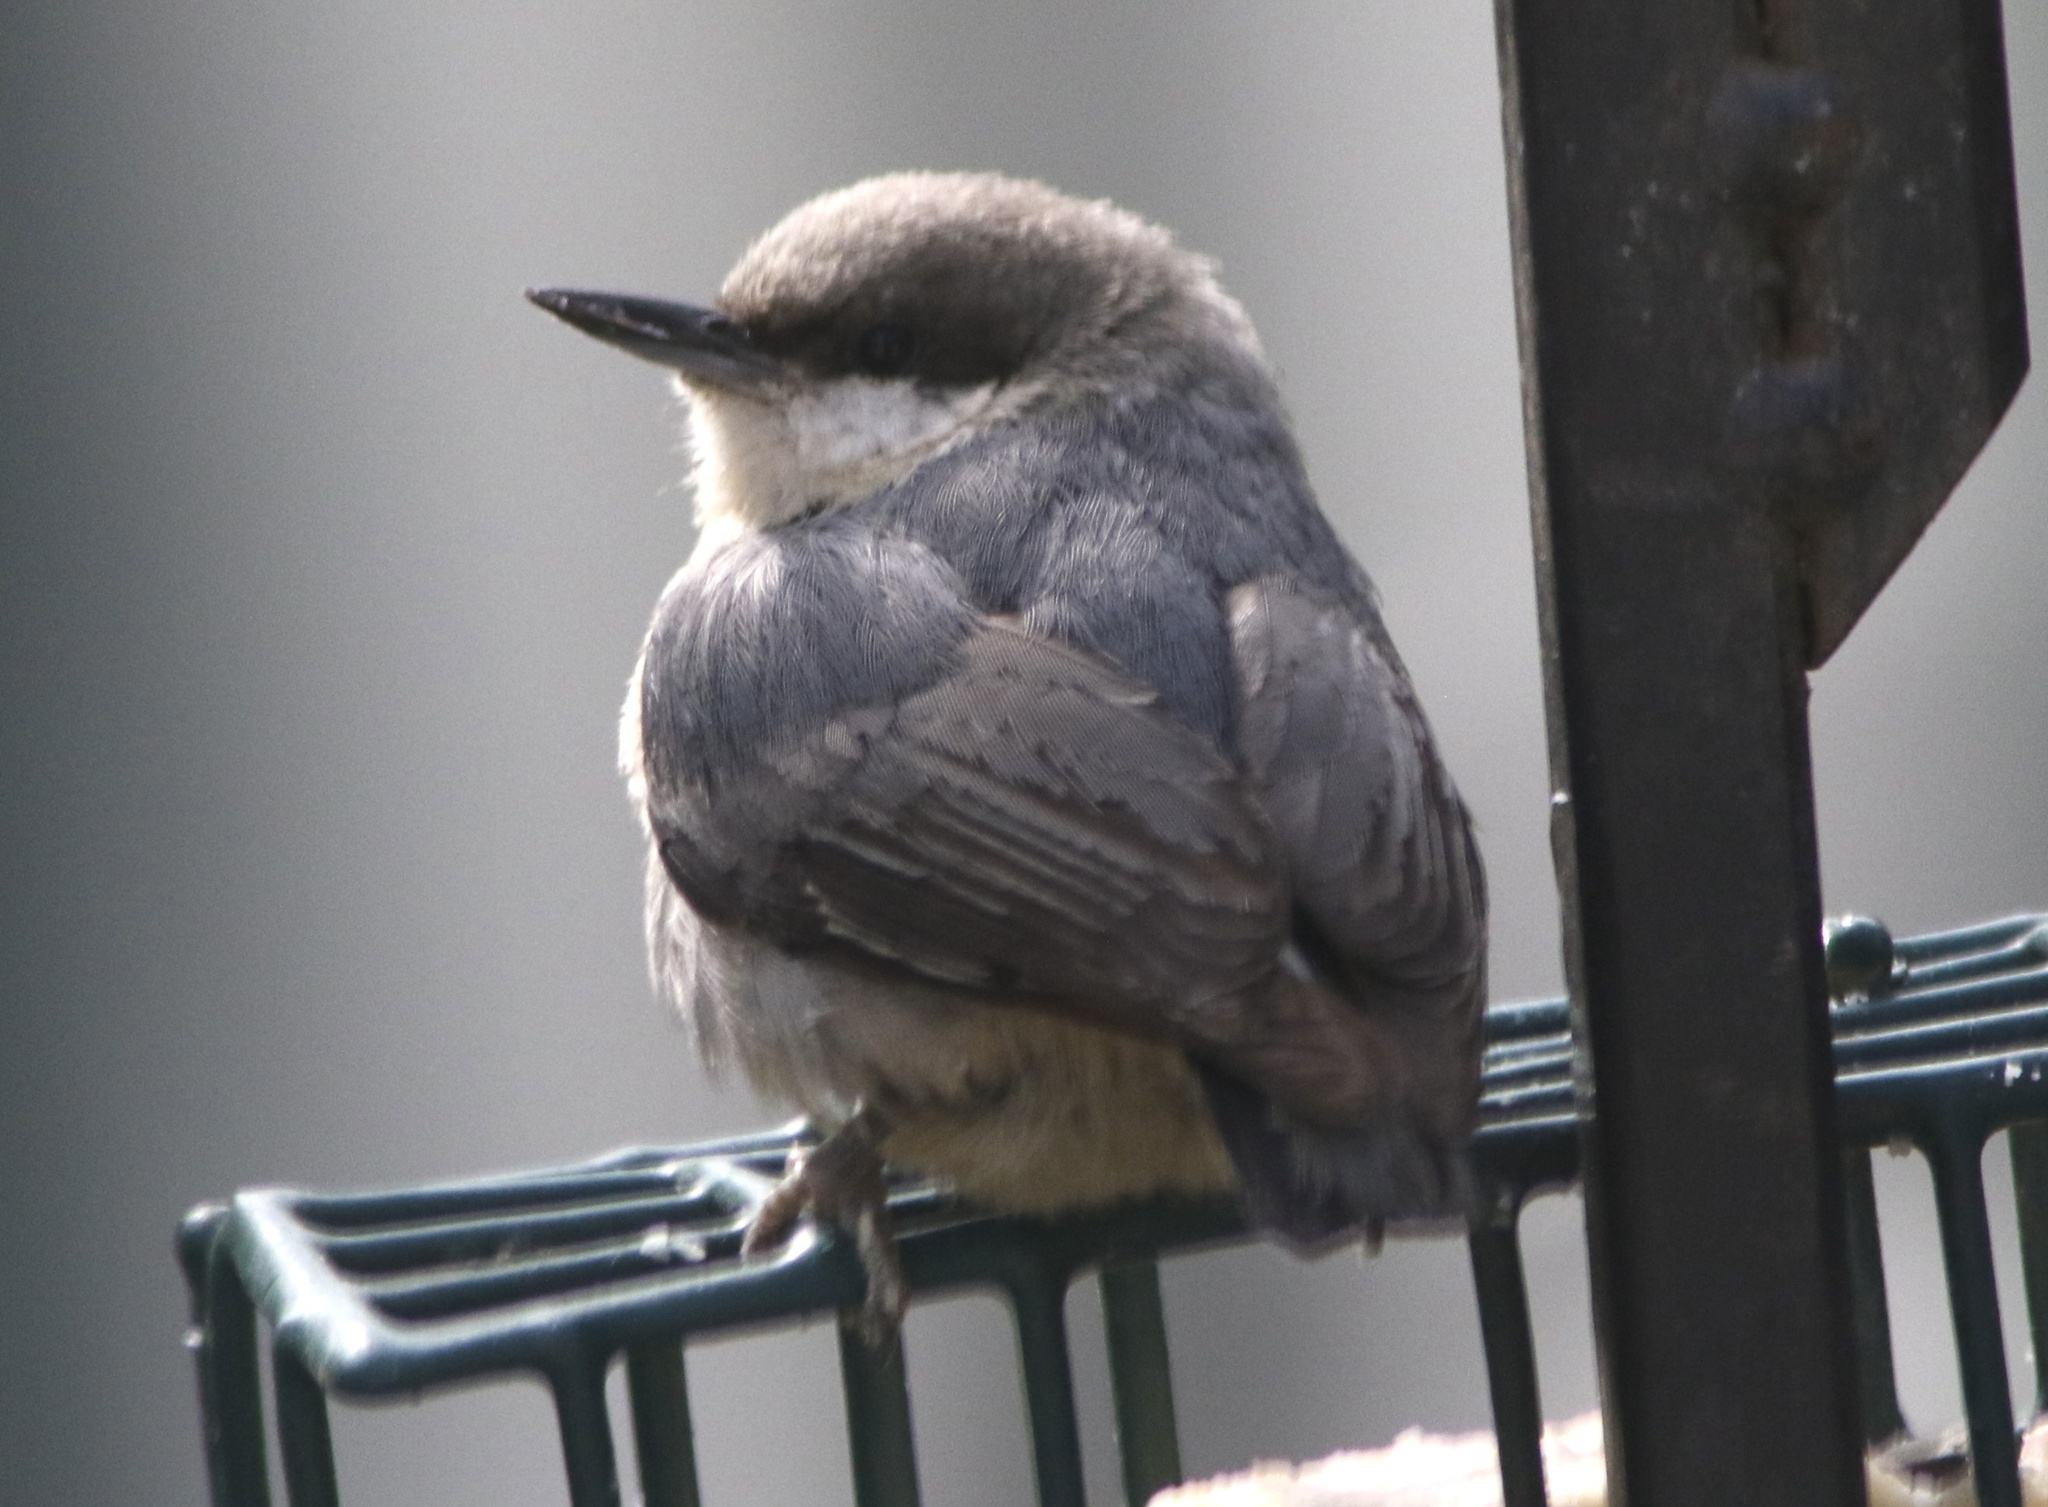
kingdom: Animalia
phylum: Chordata
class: Aves
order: Passeriformes
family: Sittidae
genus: Sitta
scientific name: Sitta pygmaea
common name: Pygmy nuthatch
